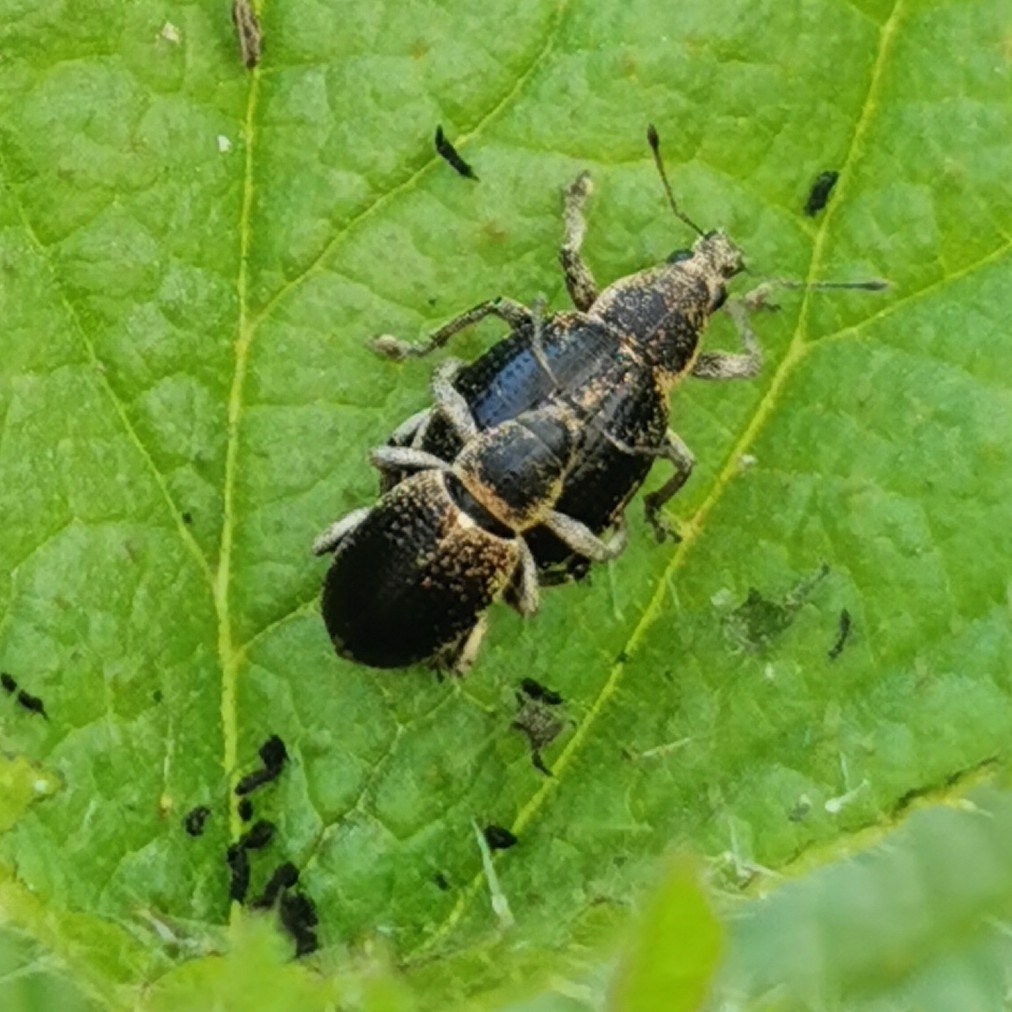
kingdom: Animalia
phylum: Arthropoda
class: Insecta
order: Coleoptera
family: Curculionidae
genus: Sciaphobus
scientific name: Sciaphobus squalidus
